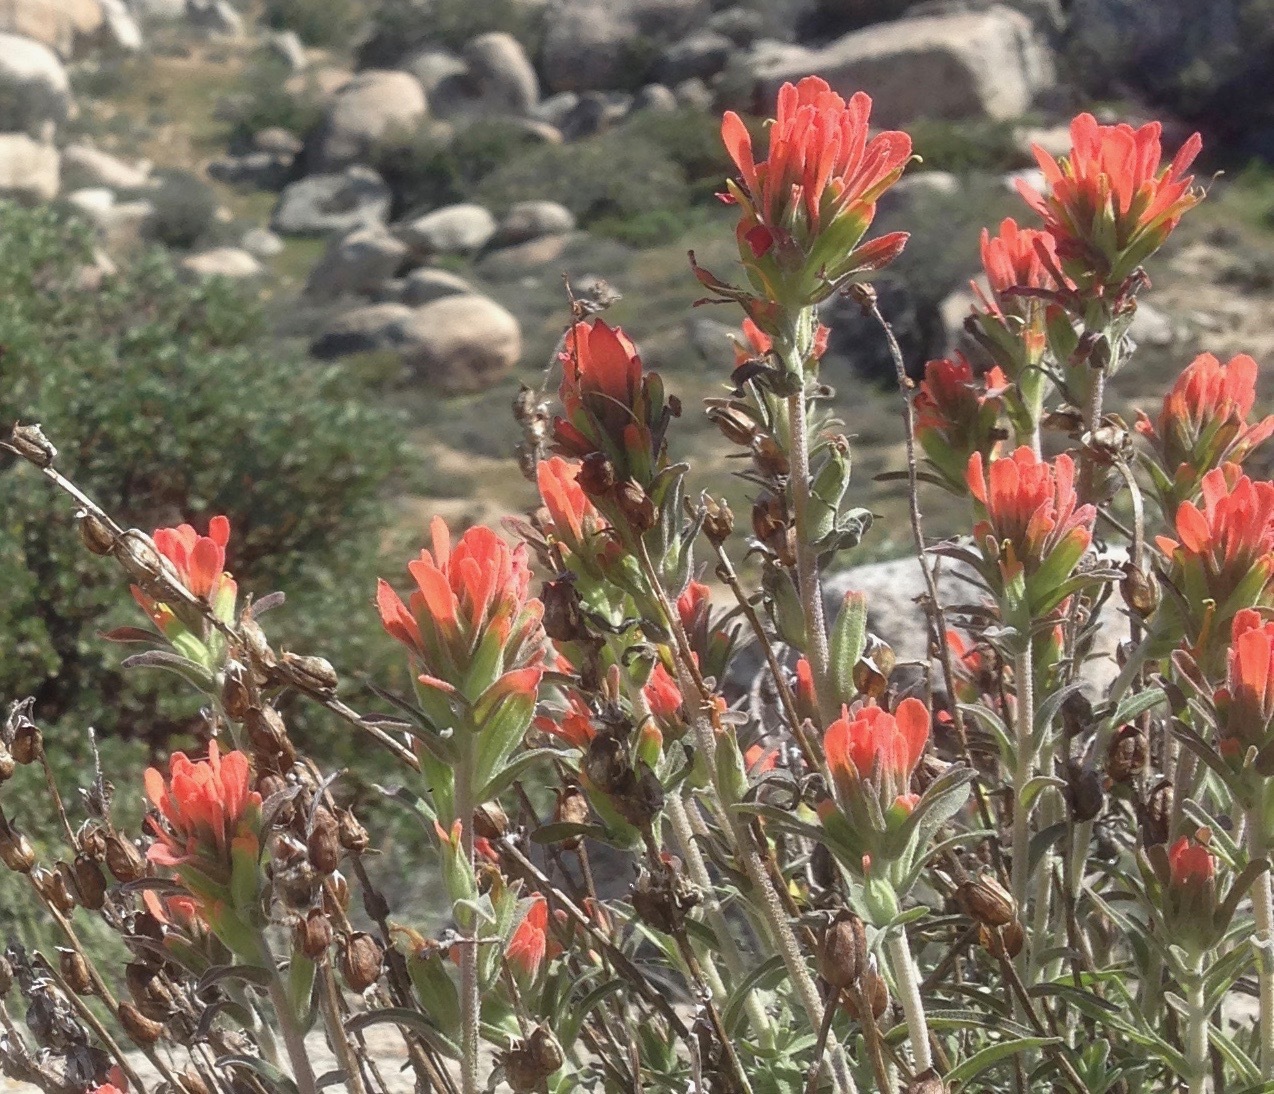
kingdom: Plantae
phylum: Tracheophyta
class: Magnoliopsida
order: Lamiales
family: Orobanchaceae
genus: Castilleja
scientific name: Castilleja foliolosa
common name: Woolly indian paintbrush
